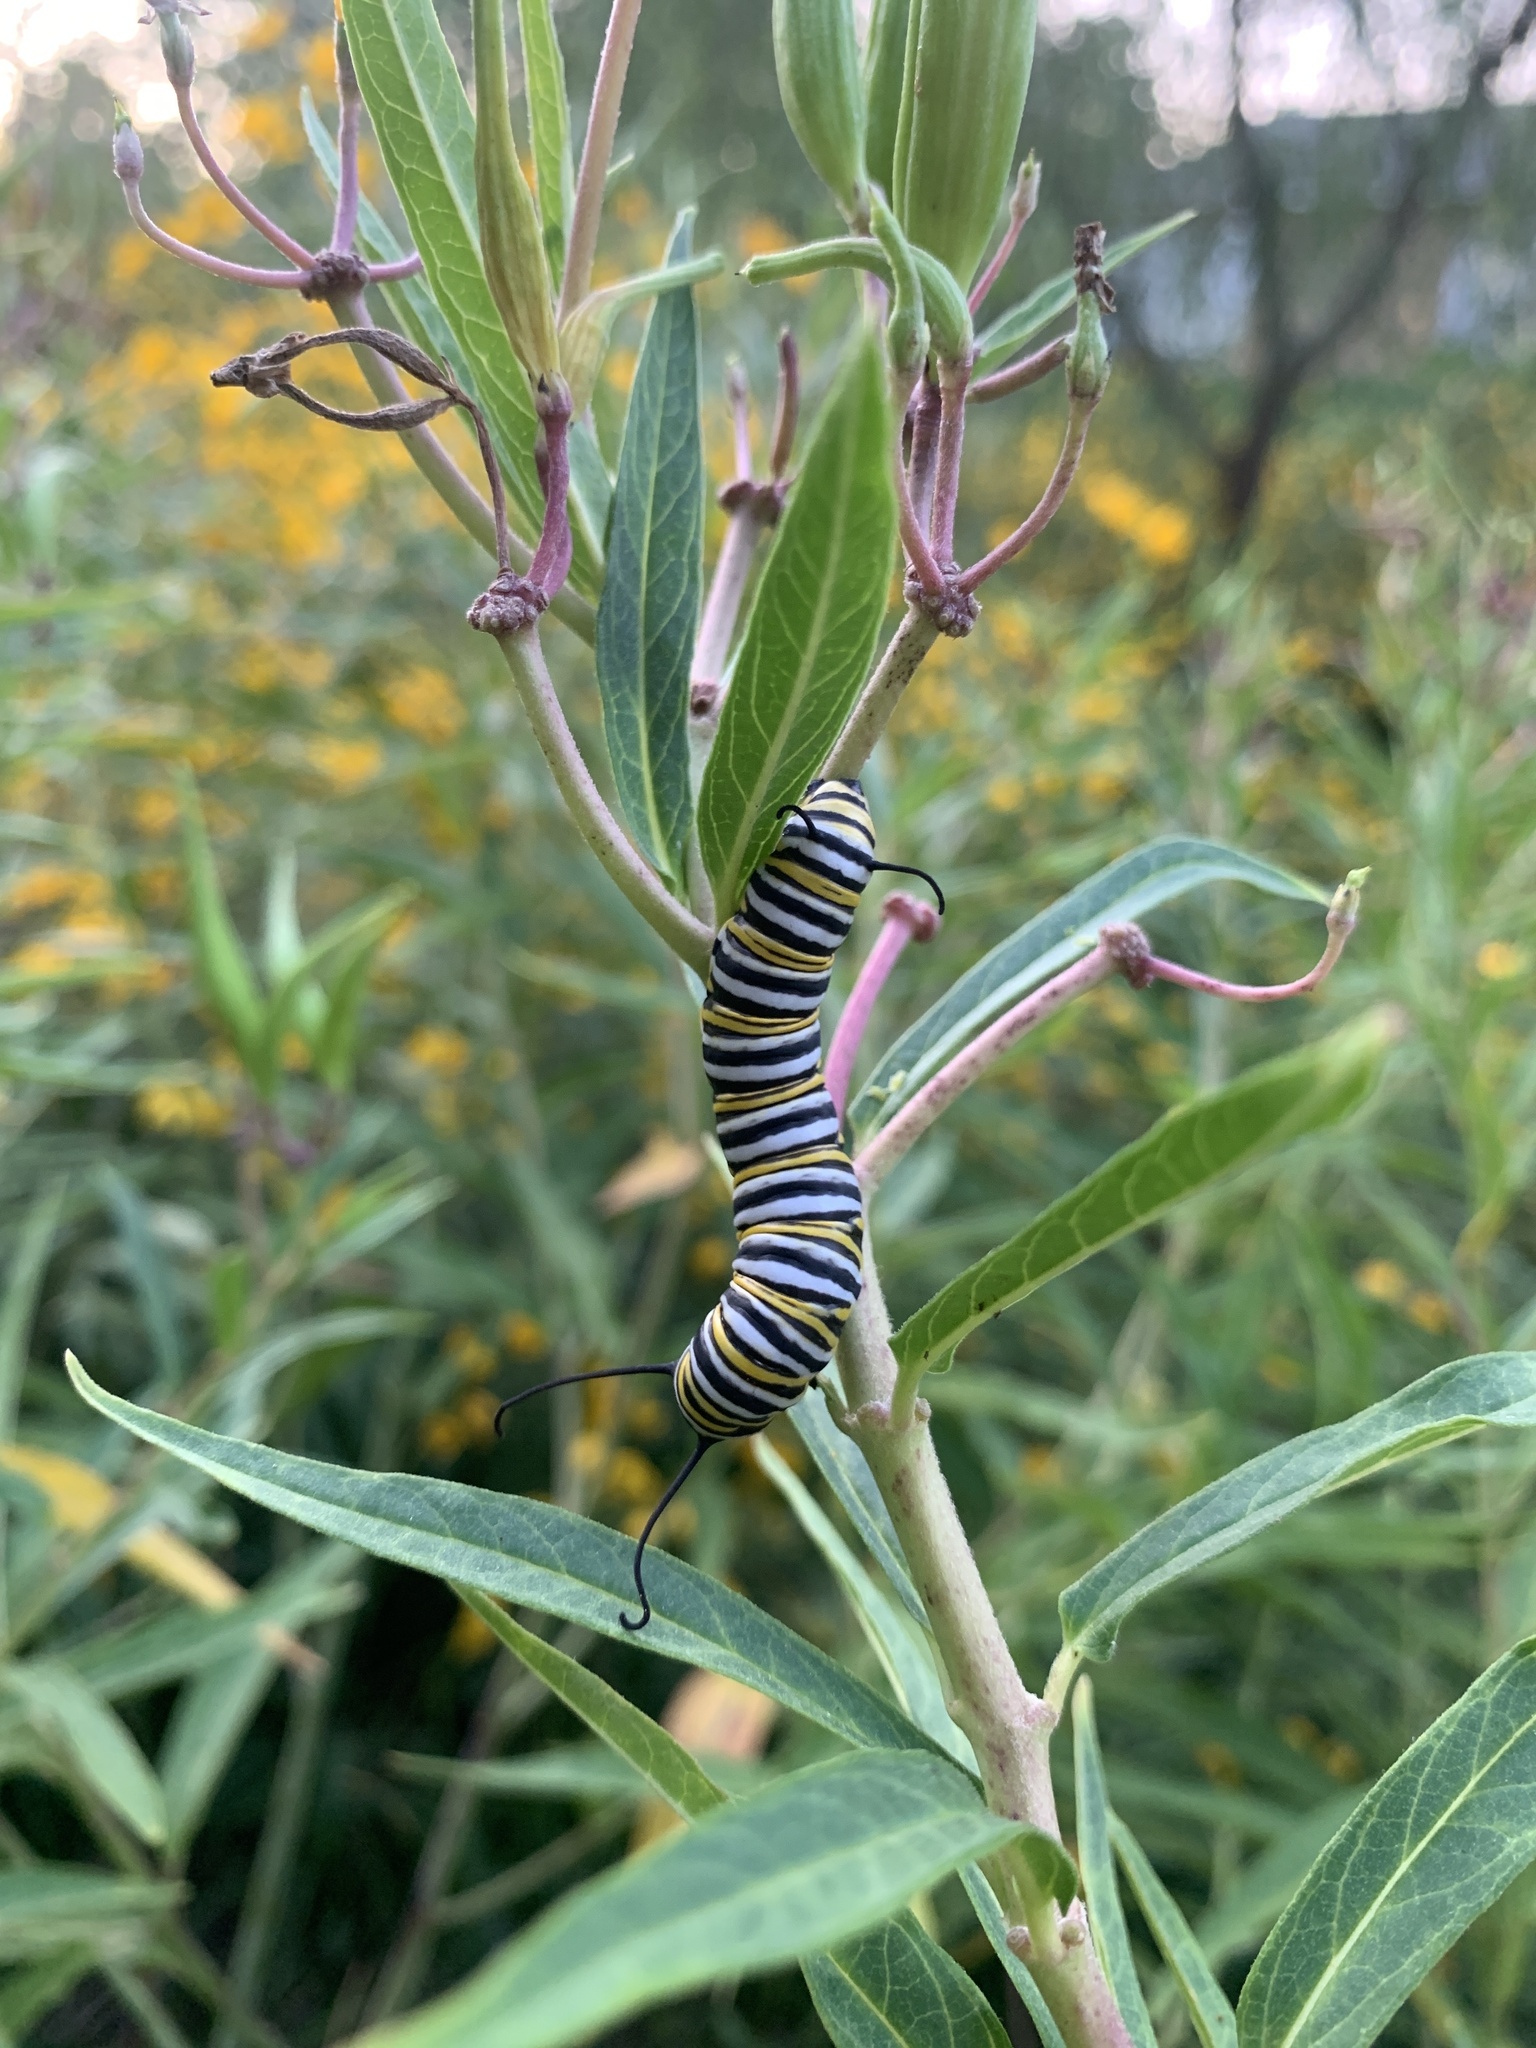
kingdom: Animalia
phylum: Arthropoda
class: Insecta
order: Lepidoptera
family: Nymphalidae
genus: Danaus
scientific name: Danaus plexippus
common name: Monarch
